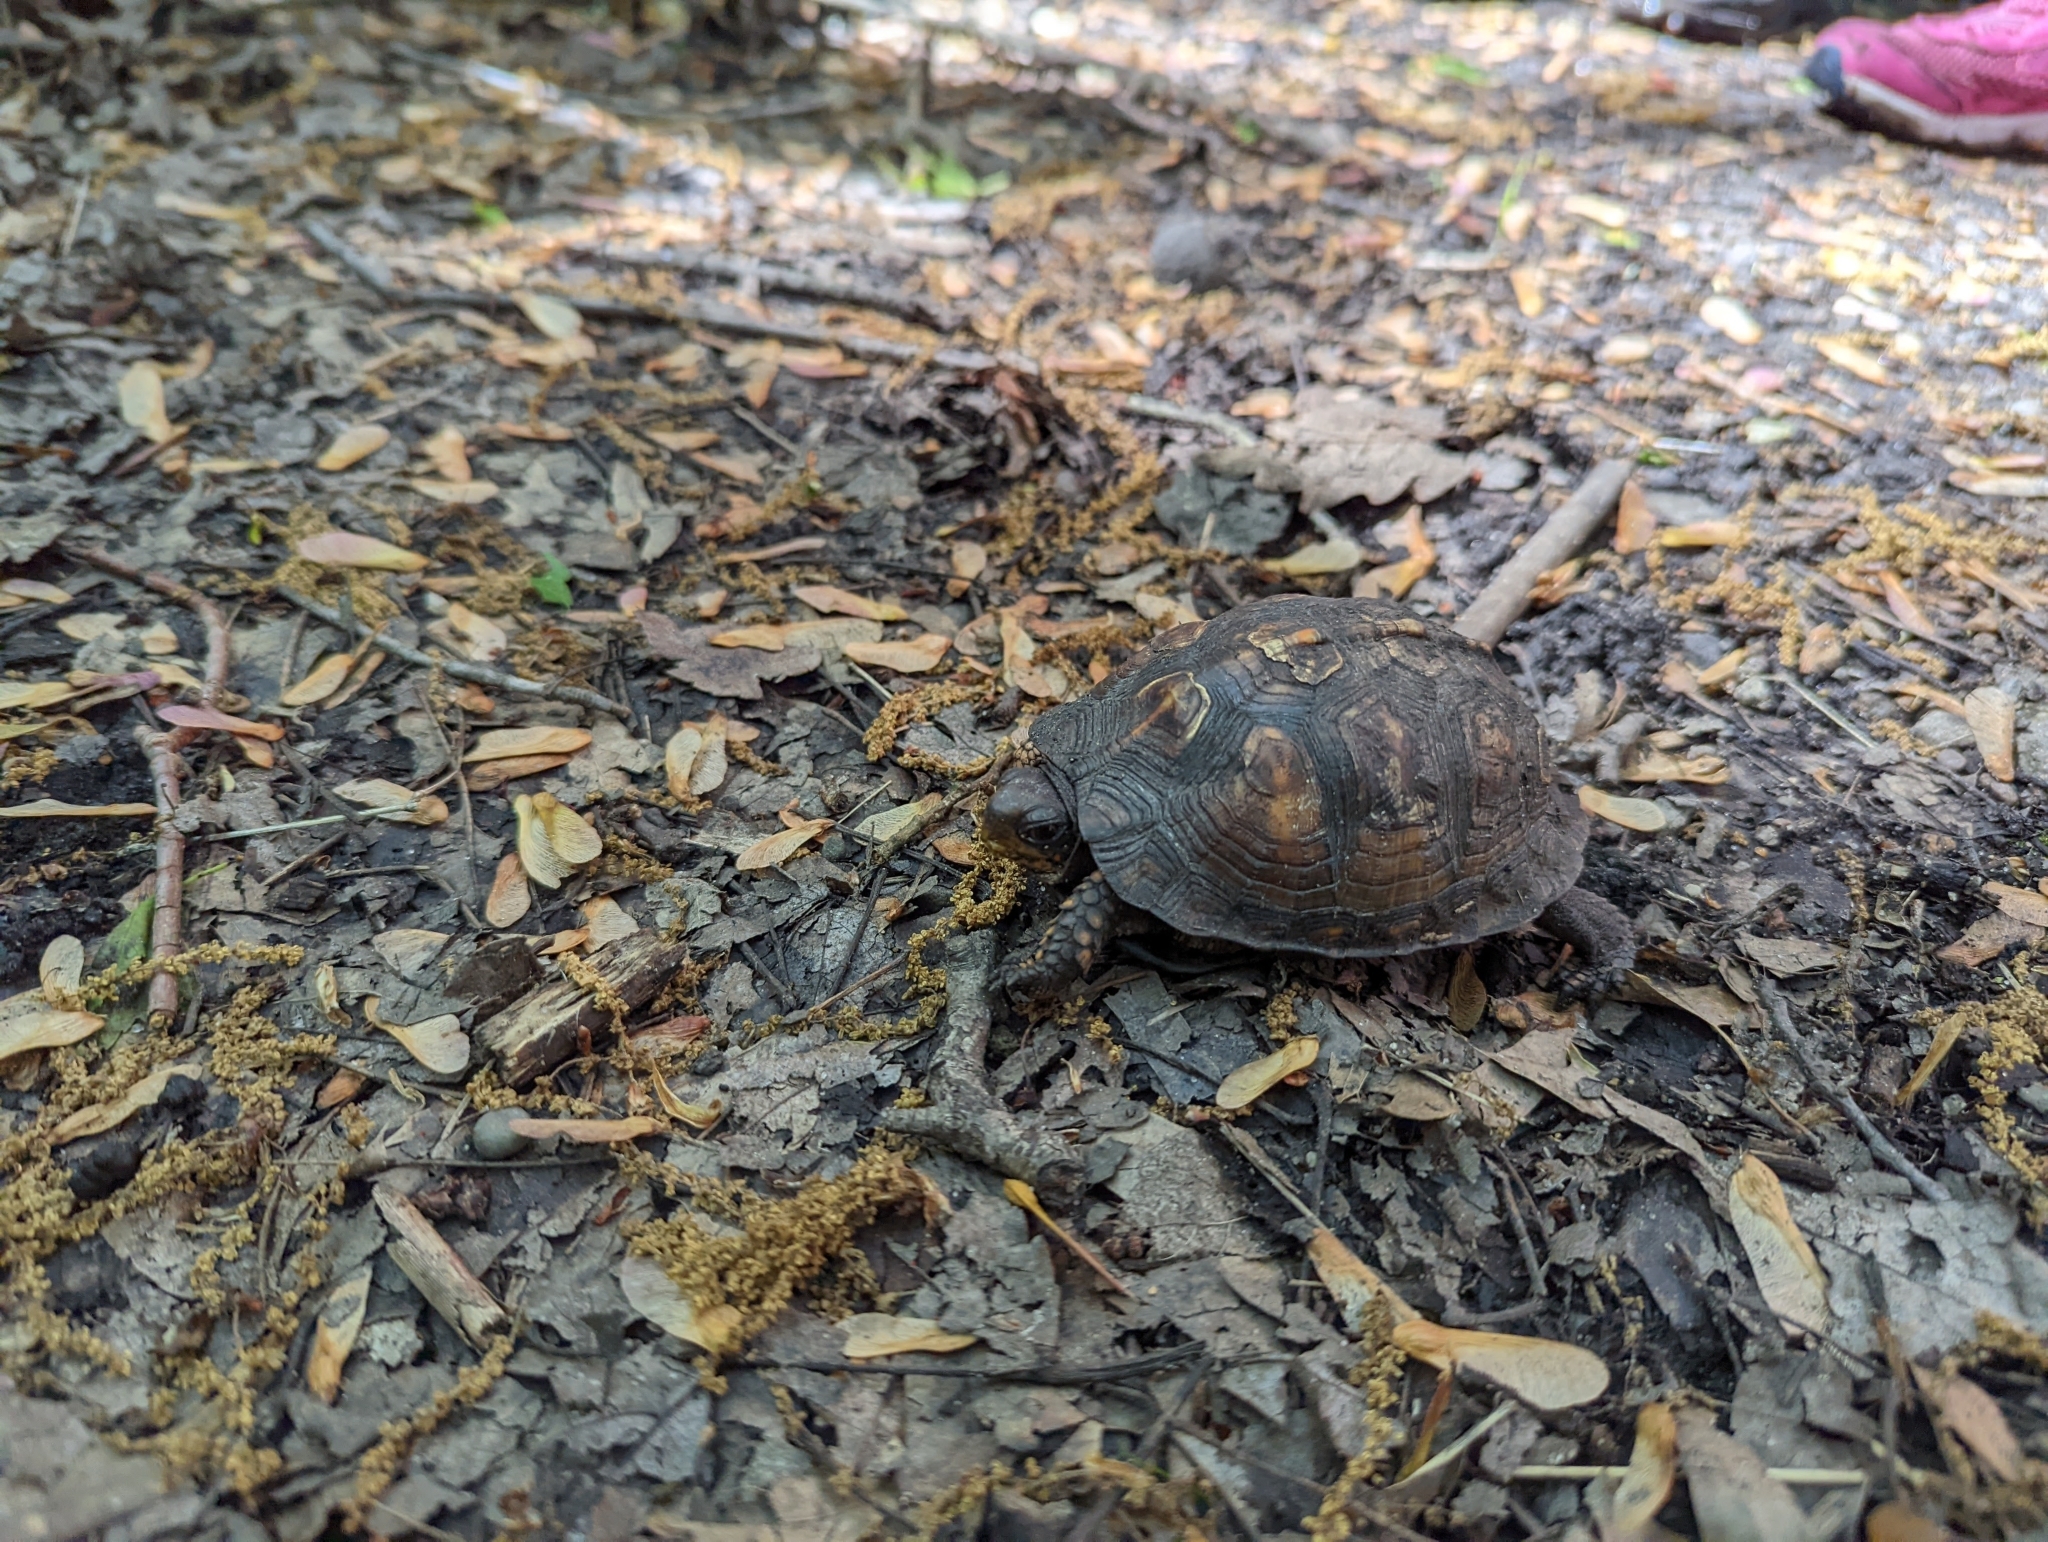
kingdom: Animalia
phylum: Chordata
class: Testudines
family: Emydidae
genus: Terrapene
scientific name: Terrapene carolina
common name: Common box turtle
